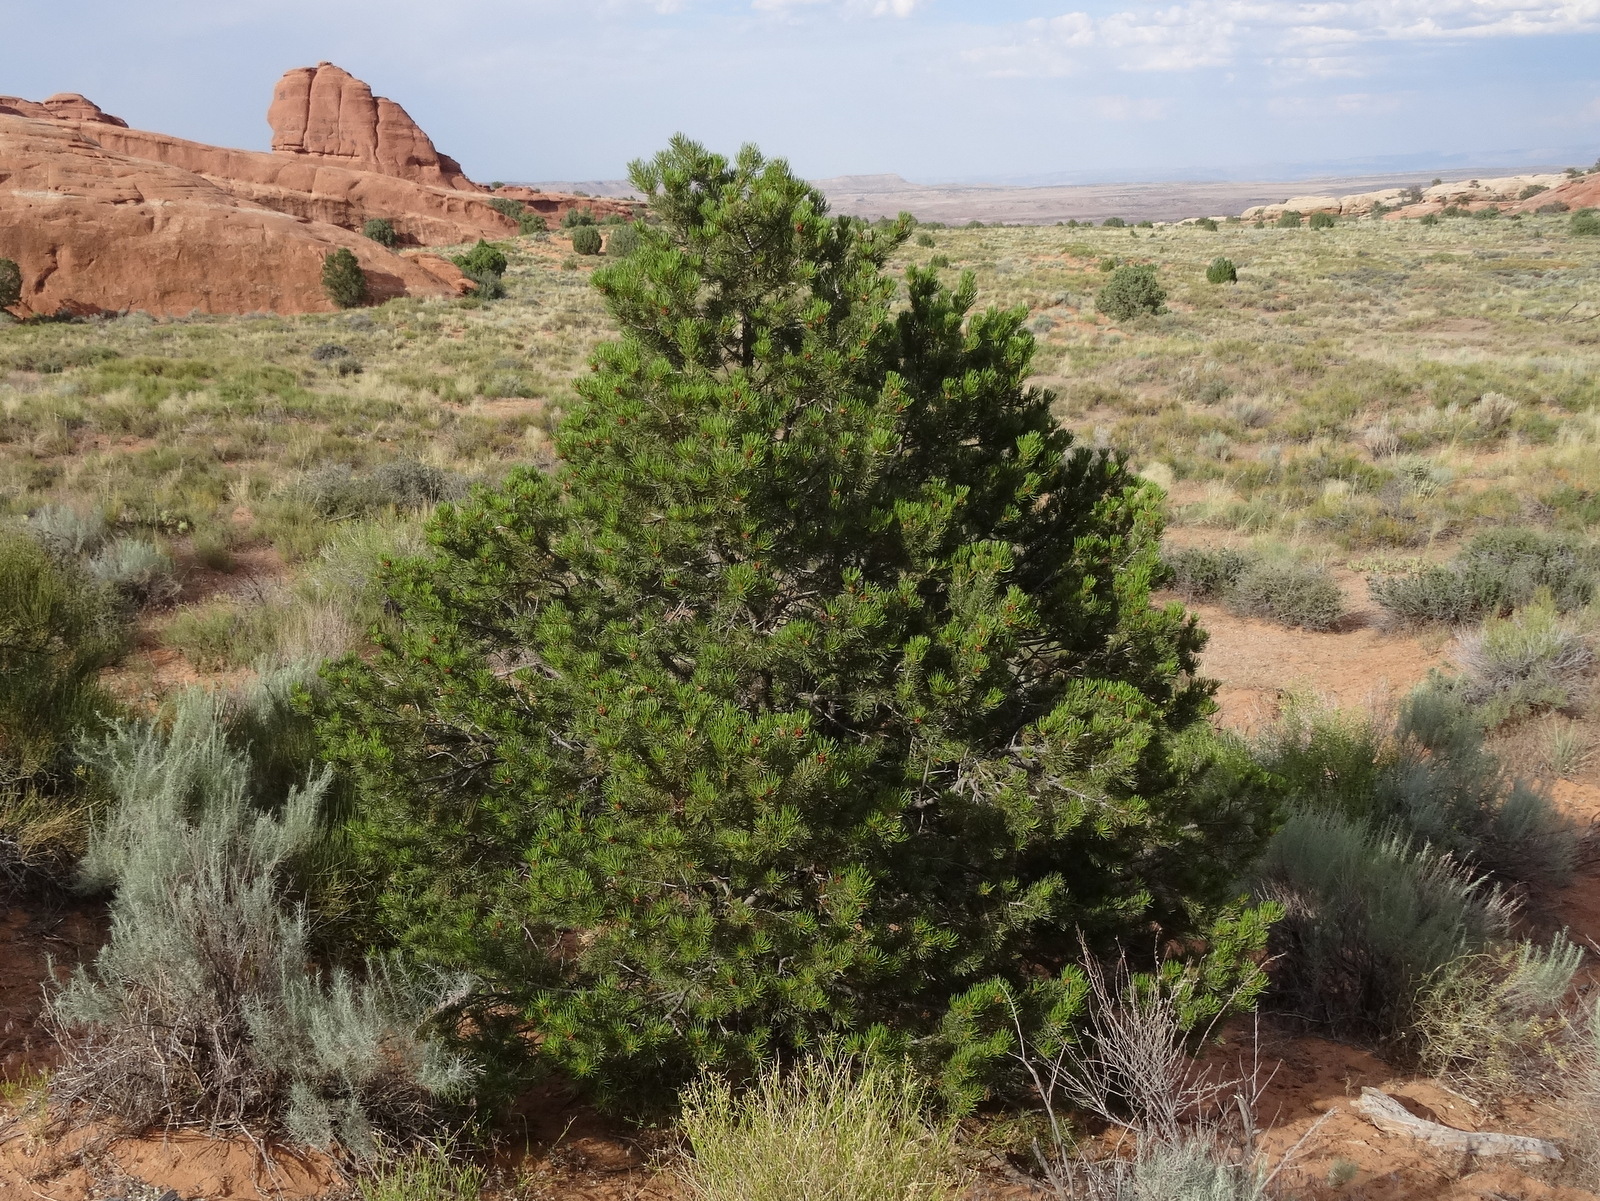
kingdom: Plantae
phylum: Tracheophyta
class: Pinopsida
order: Pinales
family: Pinaceae
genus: Pinus
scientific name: Pinus edulis
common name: Colorado pinyon
